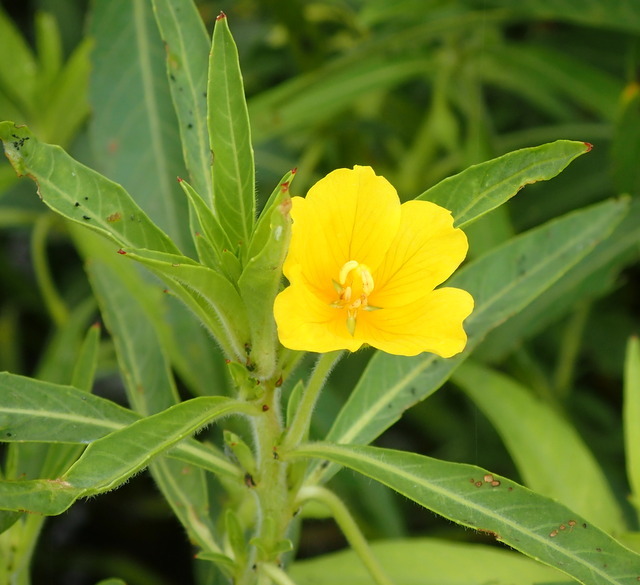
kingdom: Plantae
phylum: Tracheophyta
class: Magnoliopsida
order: Myrtales
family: Onagraceae
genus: Ludwigia
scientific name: Ludwigia peploides
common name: Floating primrose-willow
